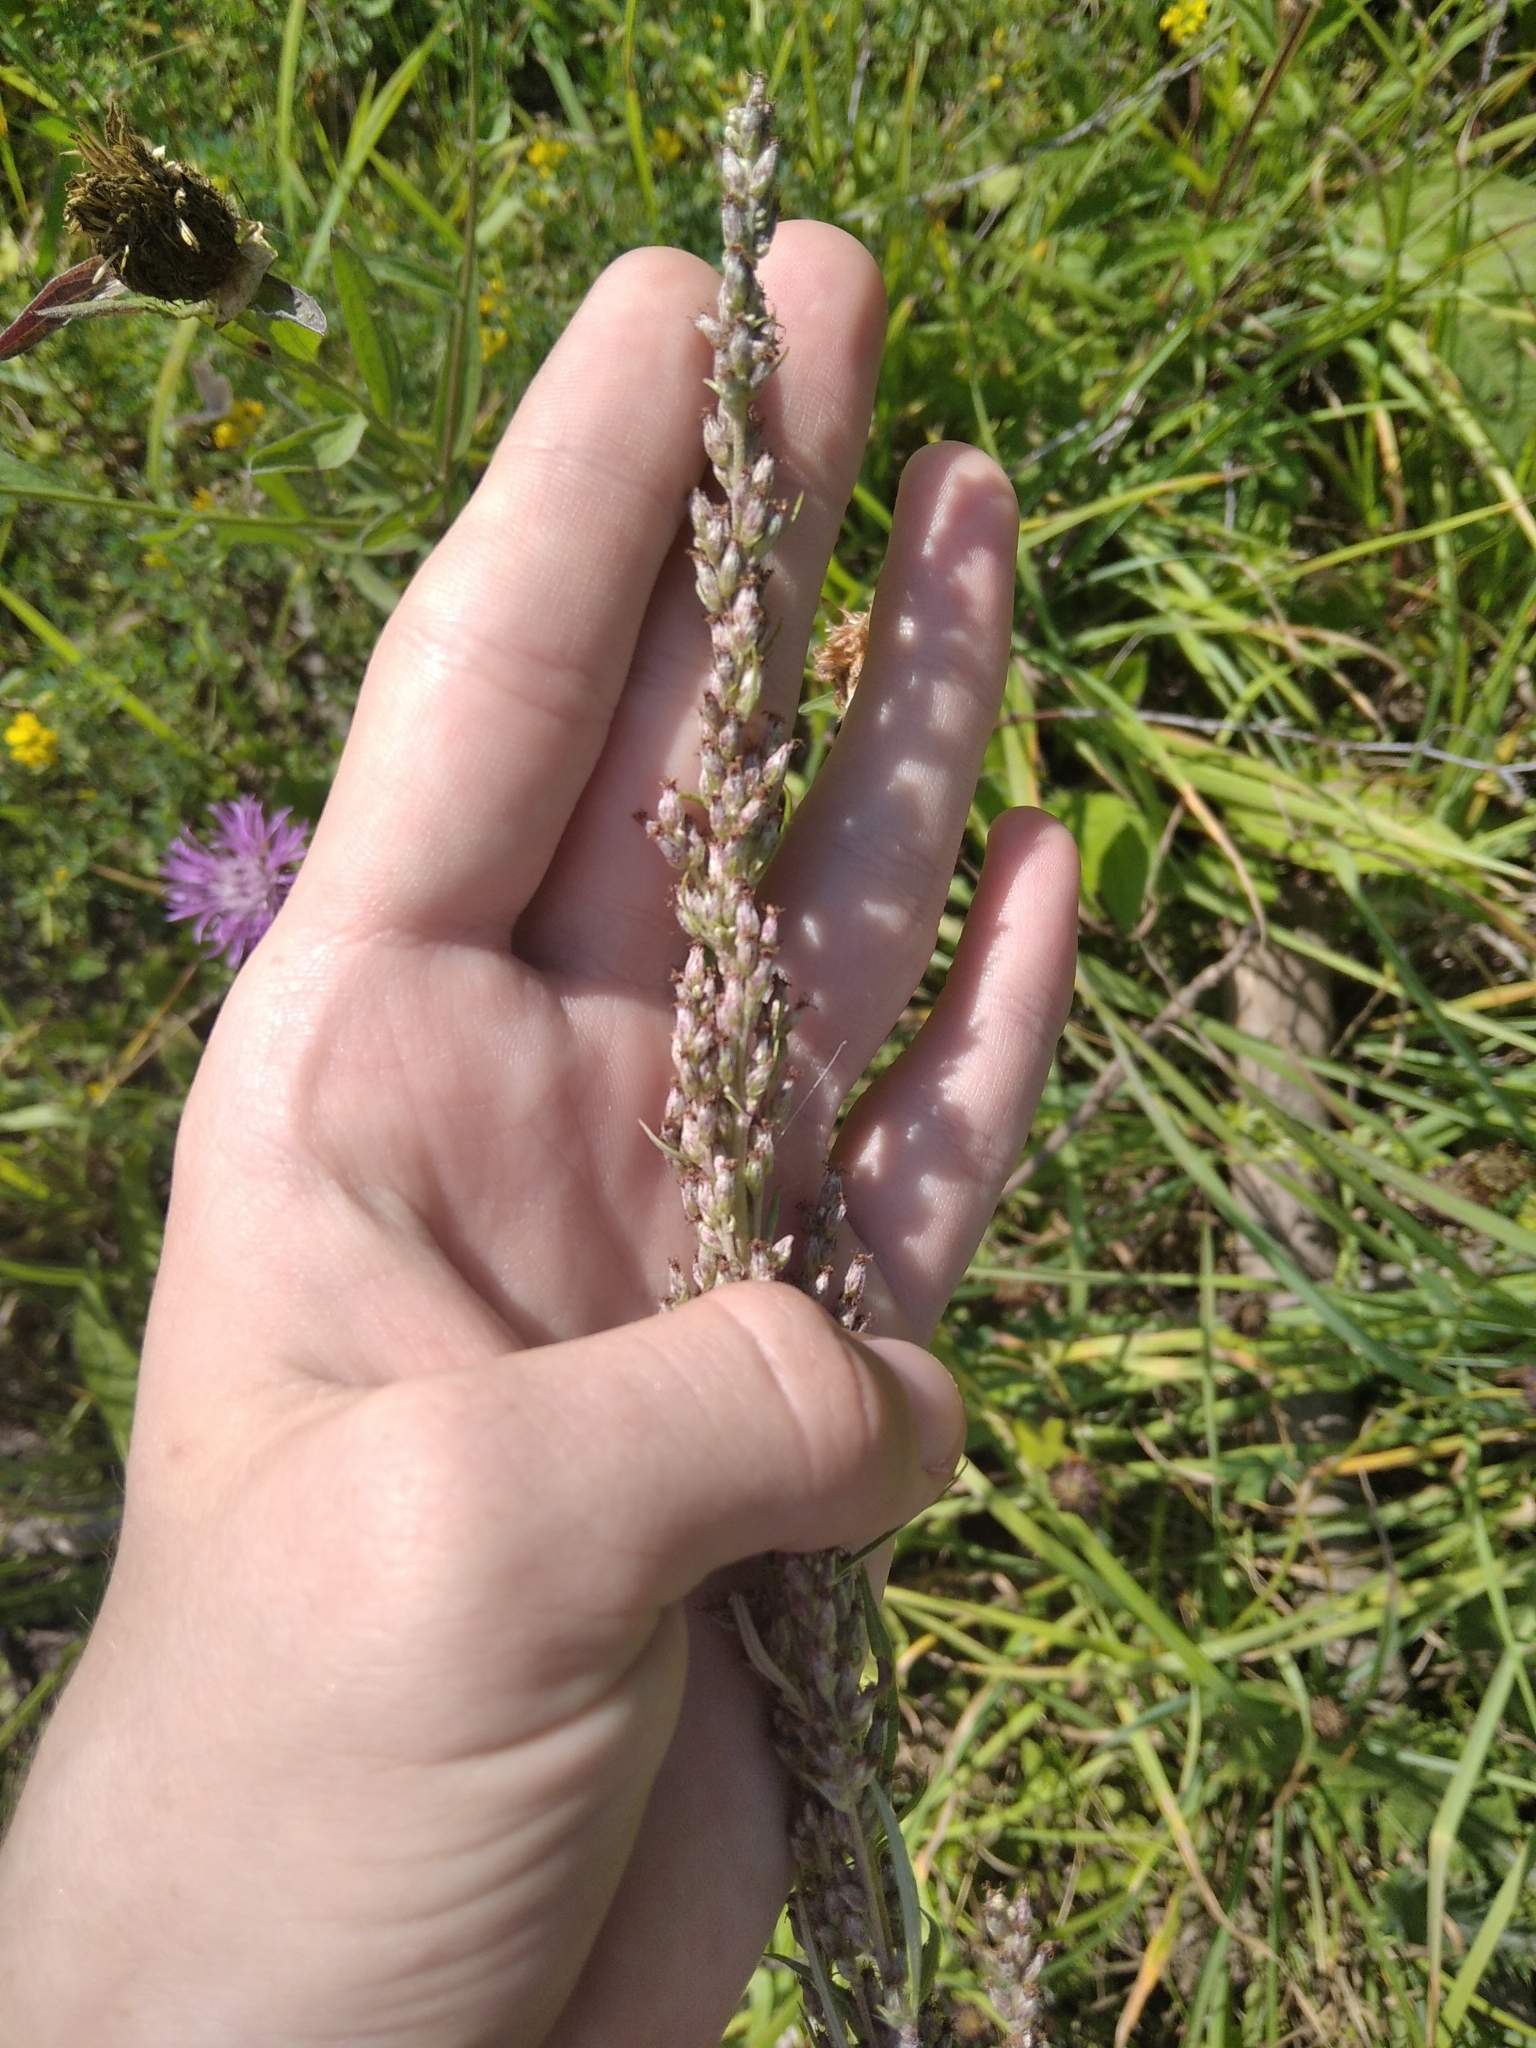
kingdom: Plantae
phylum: Tracheophyta
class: Magnoliopsida
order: Asterales
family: Asteraceae
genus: Artemisia
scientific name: Artemisia vulgaris
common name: Mugwort
